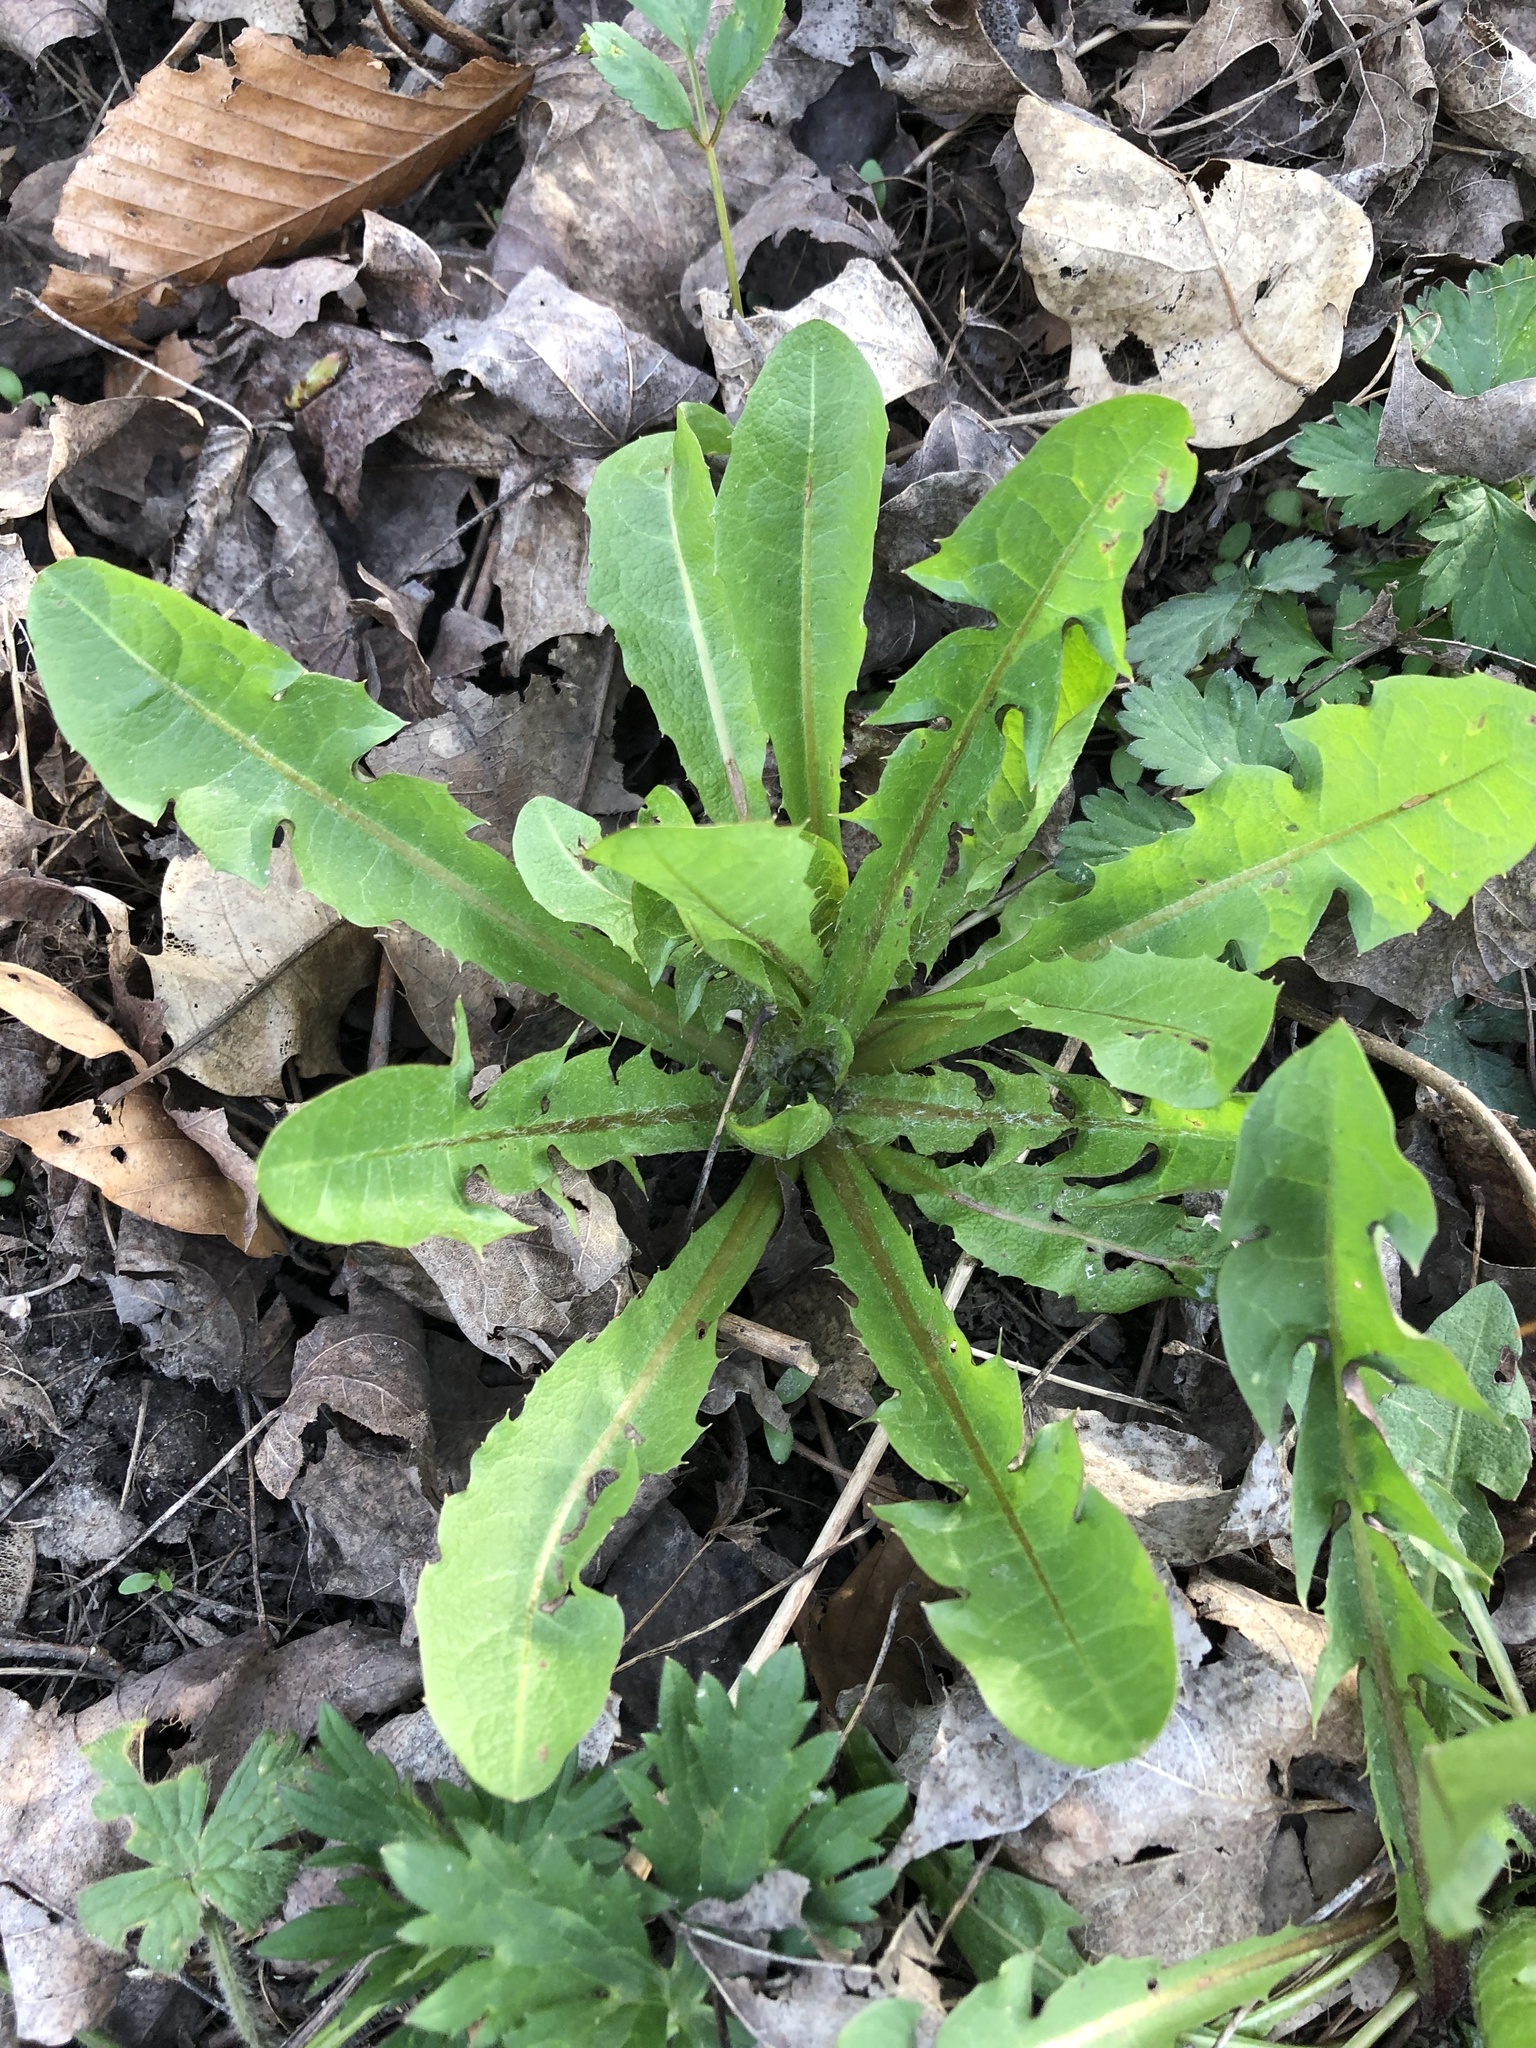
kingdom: Plantae
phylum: Tracheophyta
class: Magnoliopsida
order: Asterales
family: Asteraceae
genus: Taraxacum
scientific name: Taraxacum officinale
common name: Common dandelion
